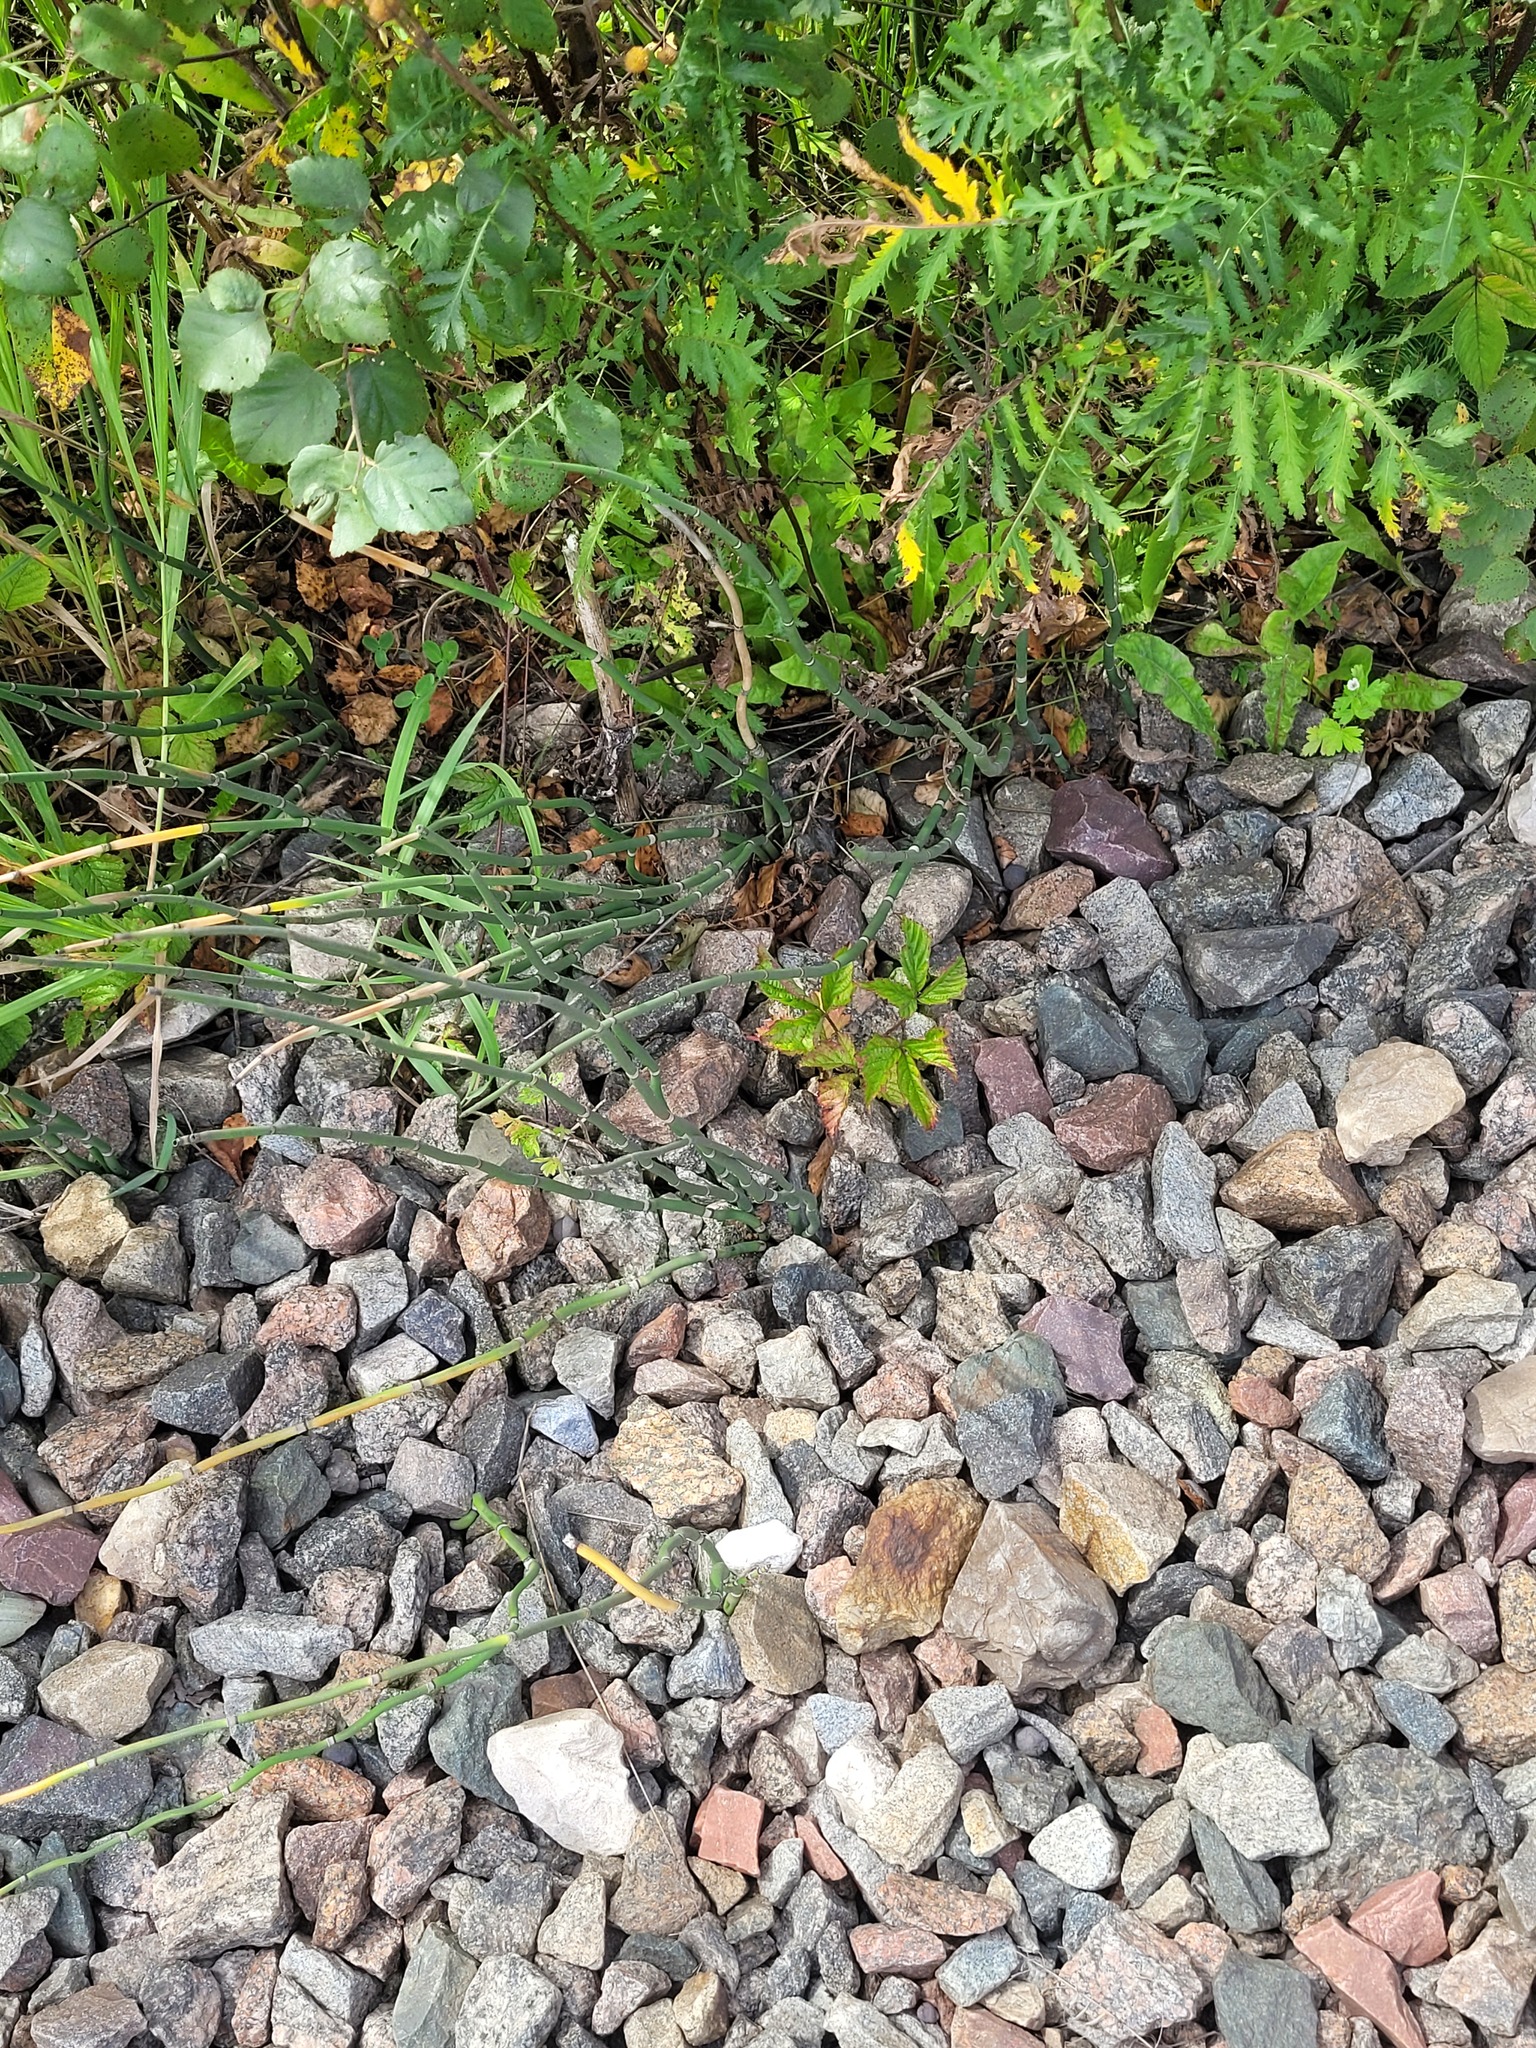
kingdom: Plantae
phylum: Tracheophyta
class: Polypodiopsida
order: Equisetales
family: Equisetaceae
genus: Equisetum
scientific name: Equisetum hyemale
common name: Rough horsetail
